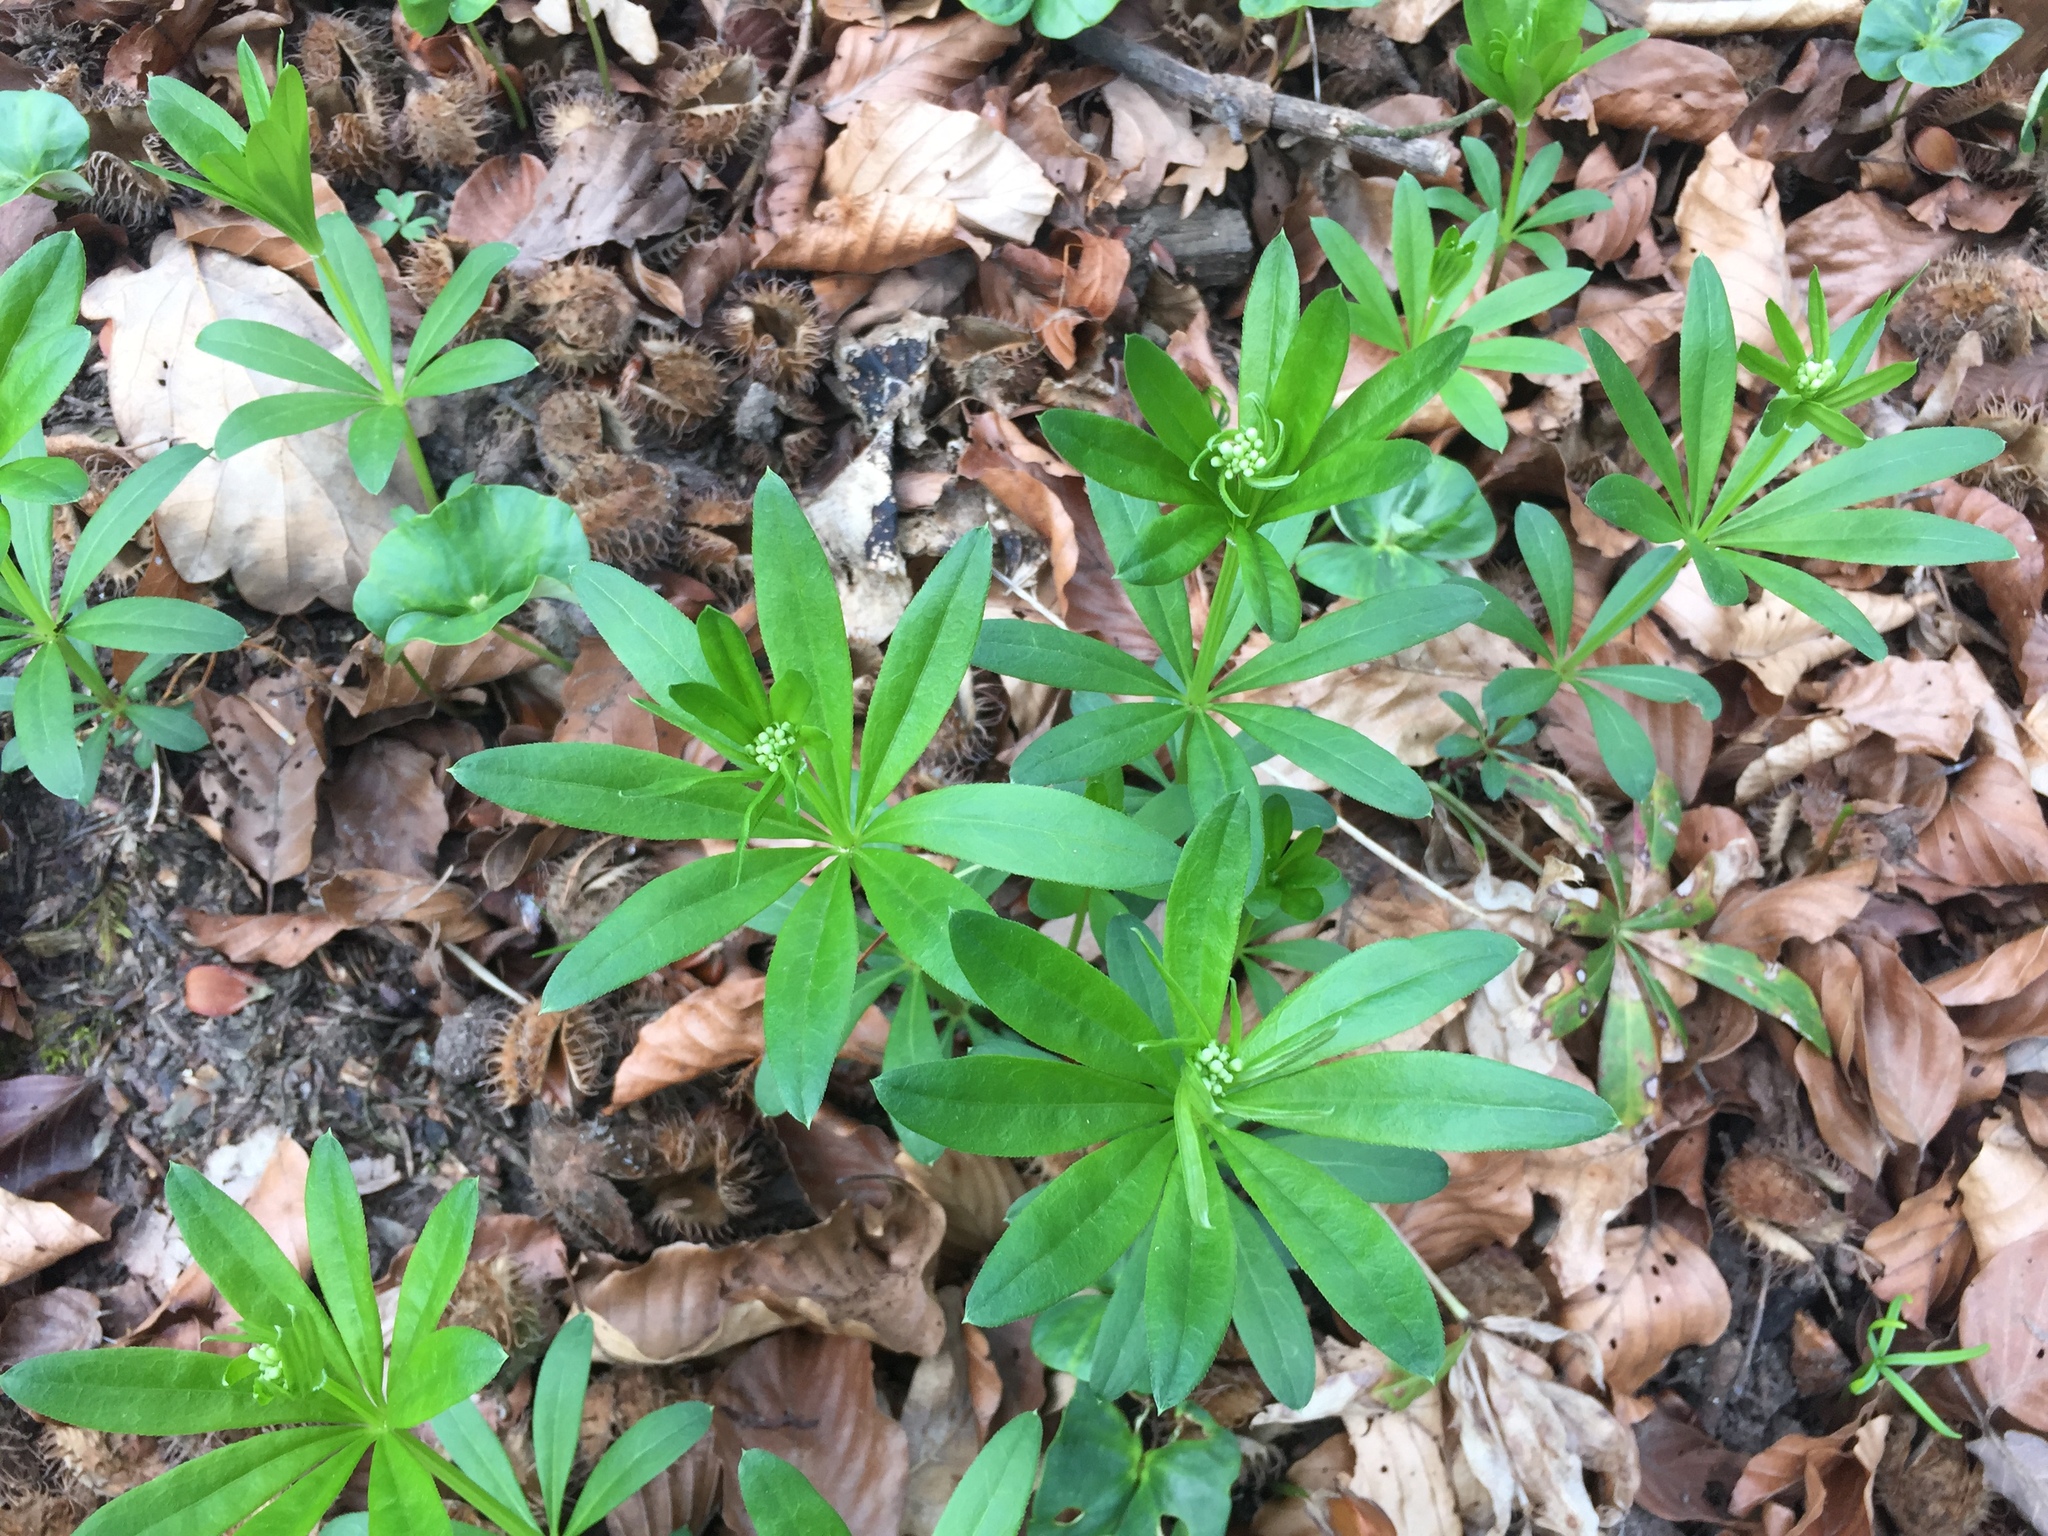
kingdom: Plantae
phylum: Tracheophyta
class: Magnoliopsida
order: Gentianales
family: Rubiaceae
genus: Galium
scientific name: Galium odoratum
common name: Sweet woodruff
